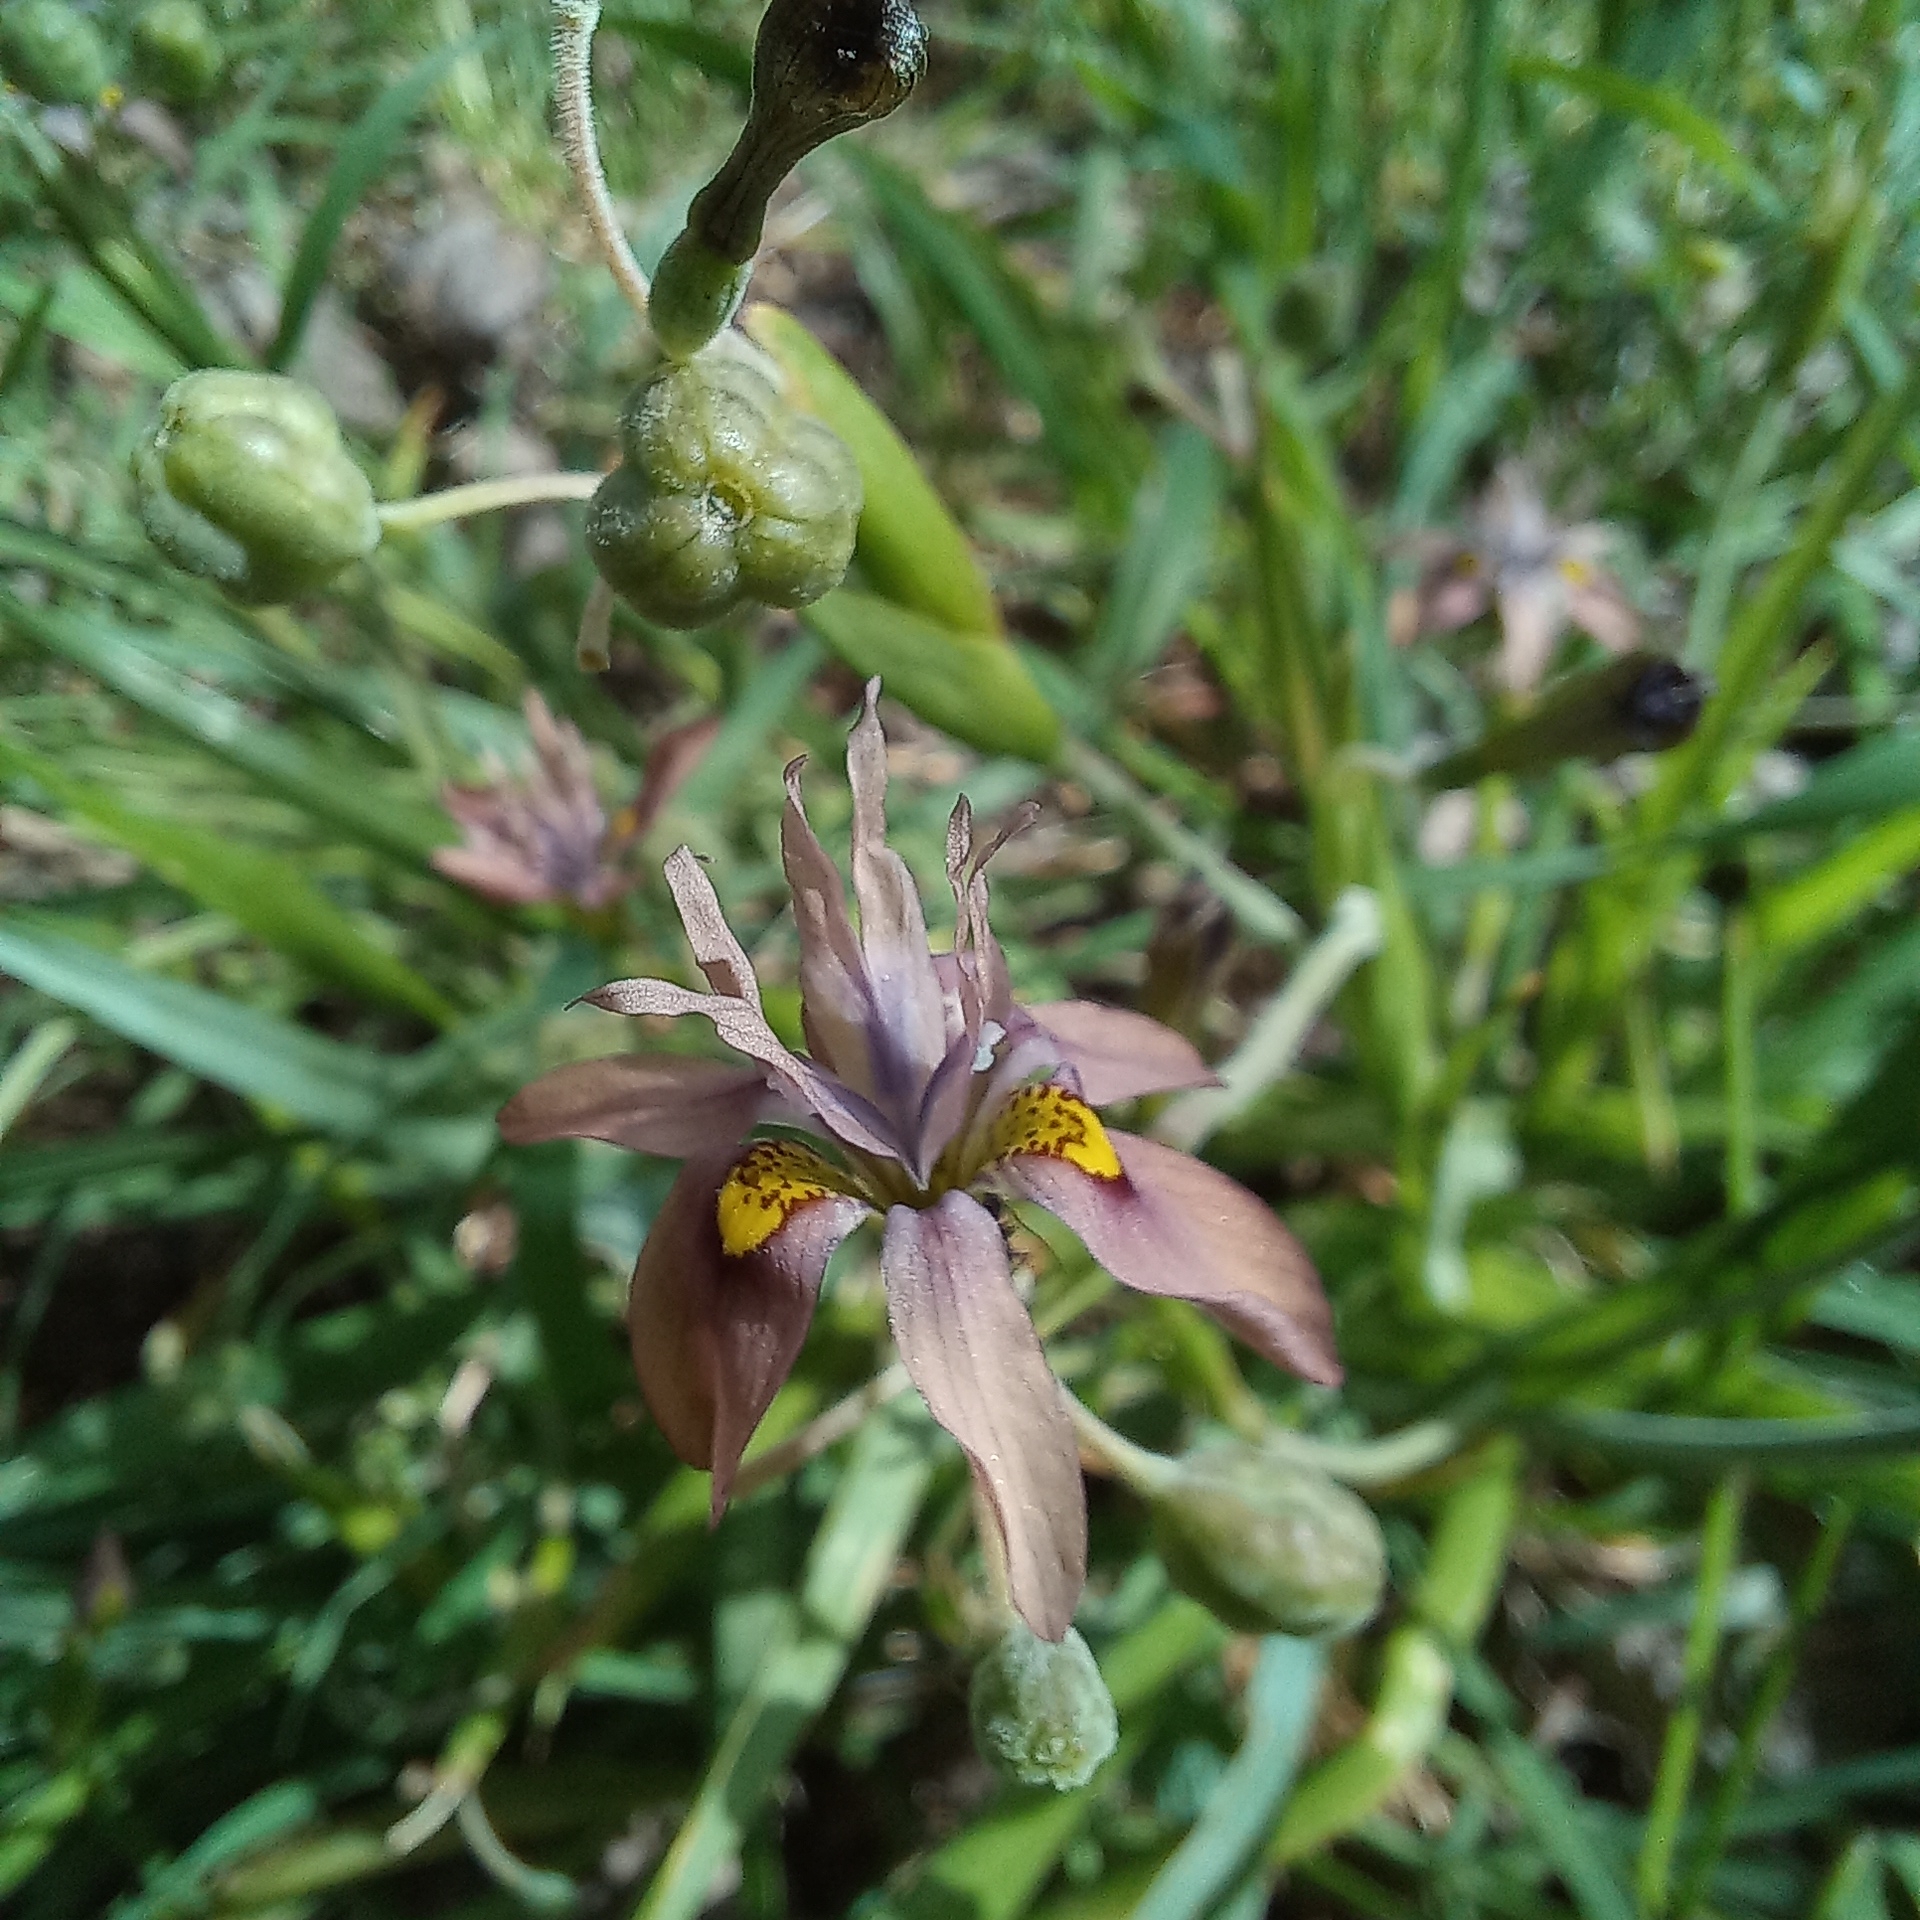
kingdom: Plantae
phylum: Tracheophyta
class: Liliopsida
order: Asparagales
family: Iridaceae
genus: Moraea
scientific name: Moraea vegeta
